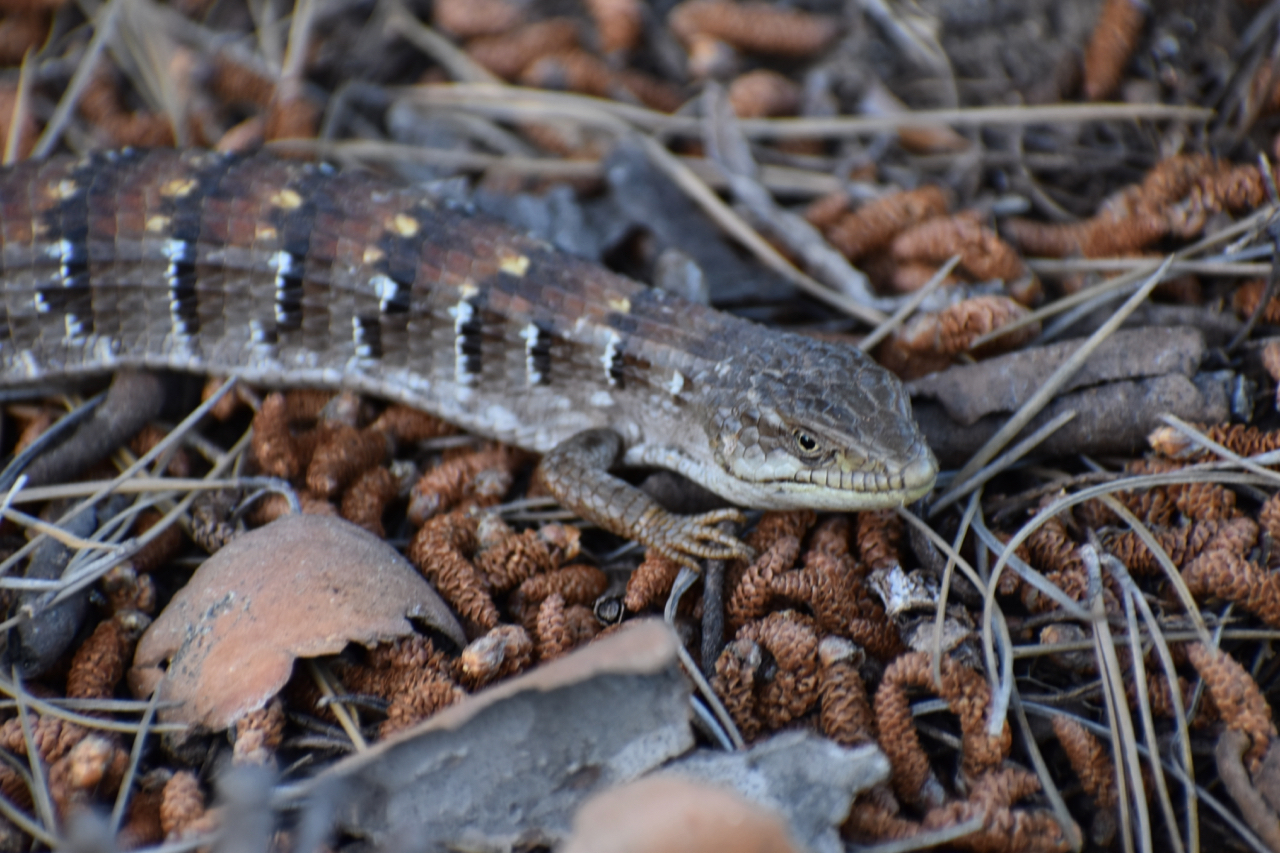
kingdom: Animalia
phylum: Chordata
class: Squamata
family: Anguidae
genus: Elgaria
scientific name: Elgaria multicarinata
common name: Southern alligator lizard
